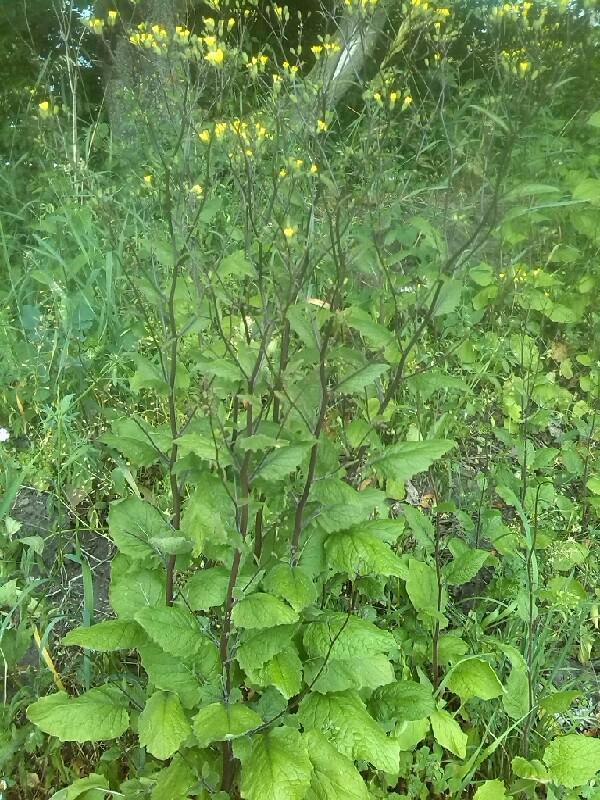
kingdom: Plantae
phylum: Tracheophyta
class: Magnoliopsida
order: Asterales
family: Asteraceae
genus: Lapsana
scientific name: Lapsana communis
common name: Nipplewort
